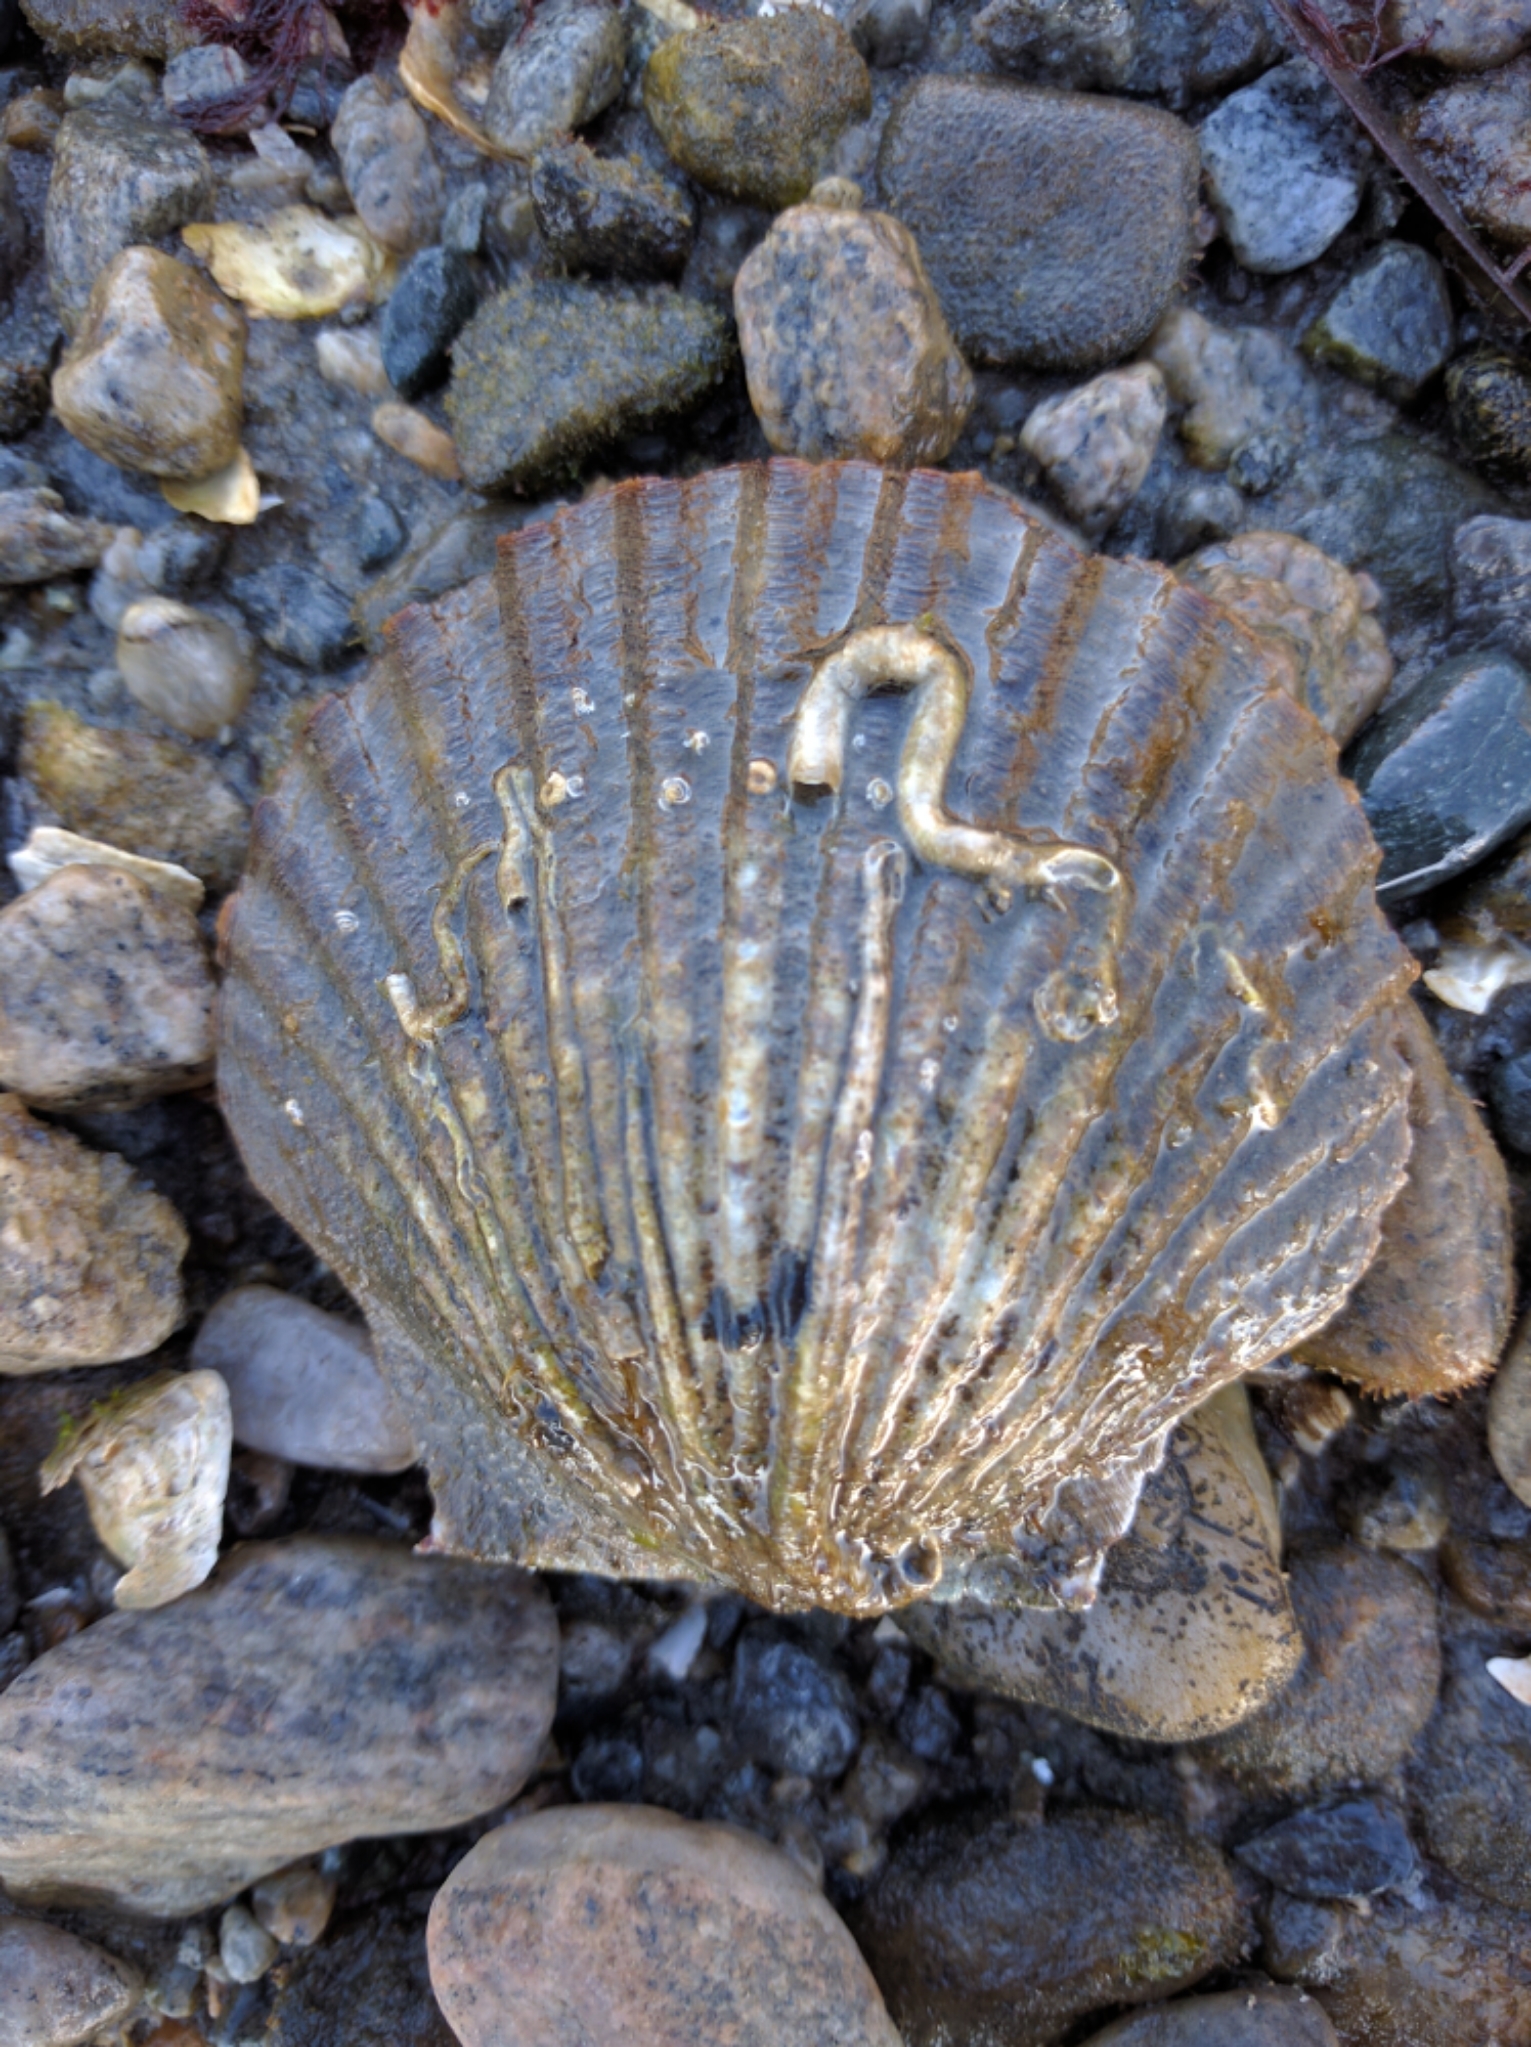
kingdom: Animalia
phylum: Mollusca
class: Bivalvia
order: Pectinida
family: Pectinidae
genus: Argopecten
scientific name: Argopecten irradians
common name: Atlantic bay scallop
